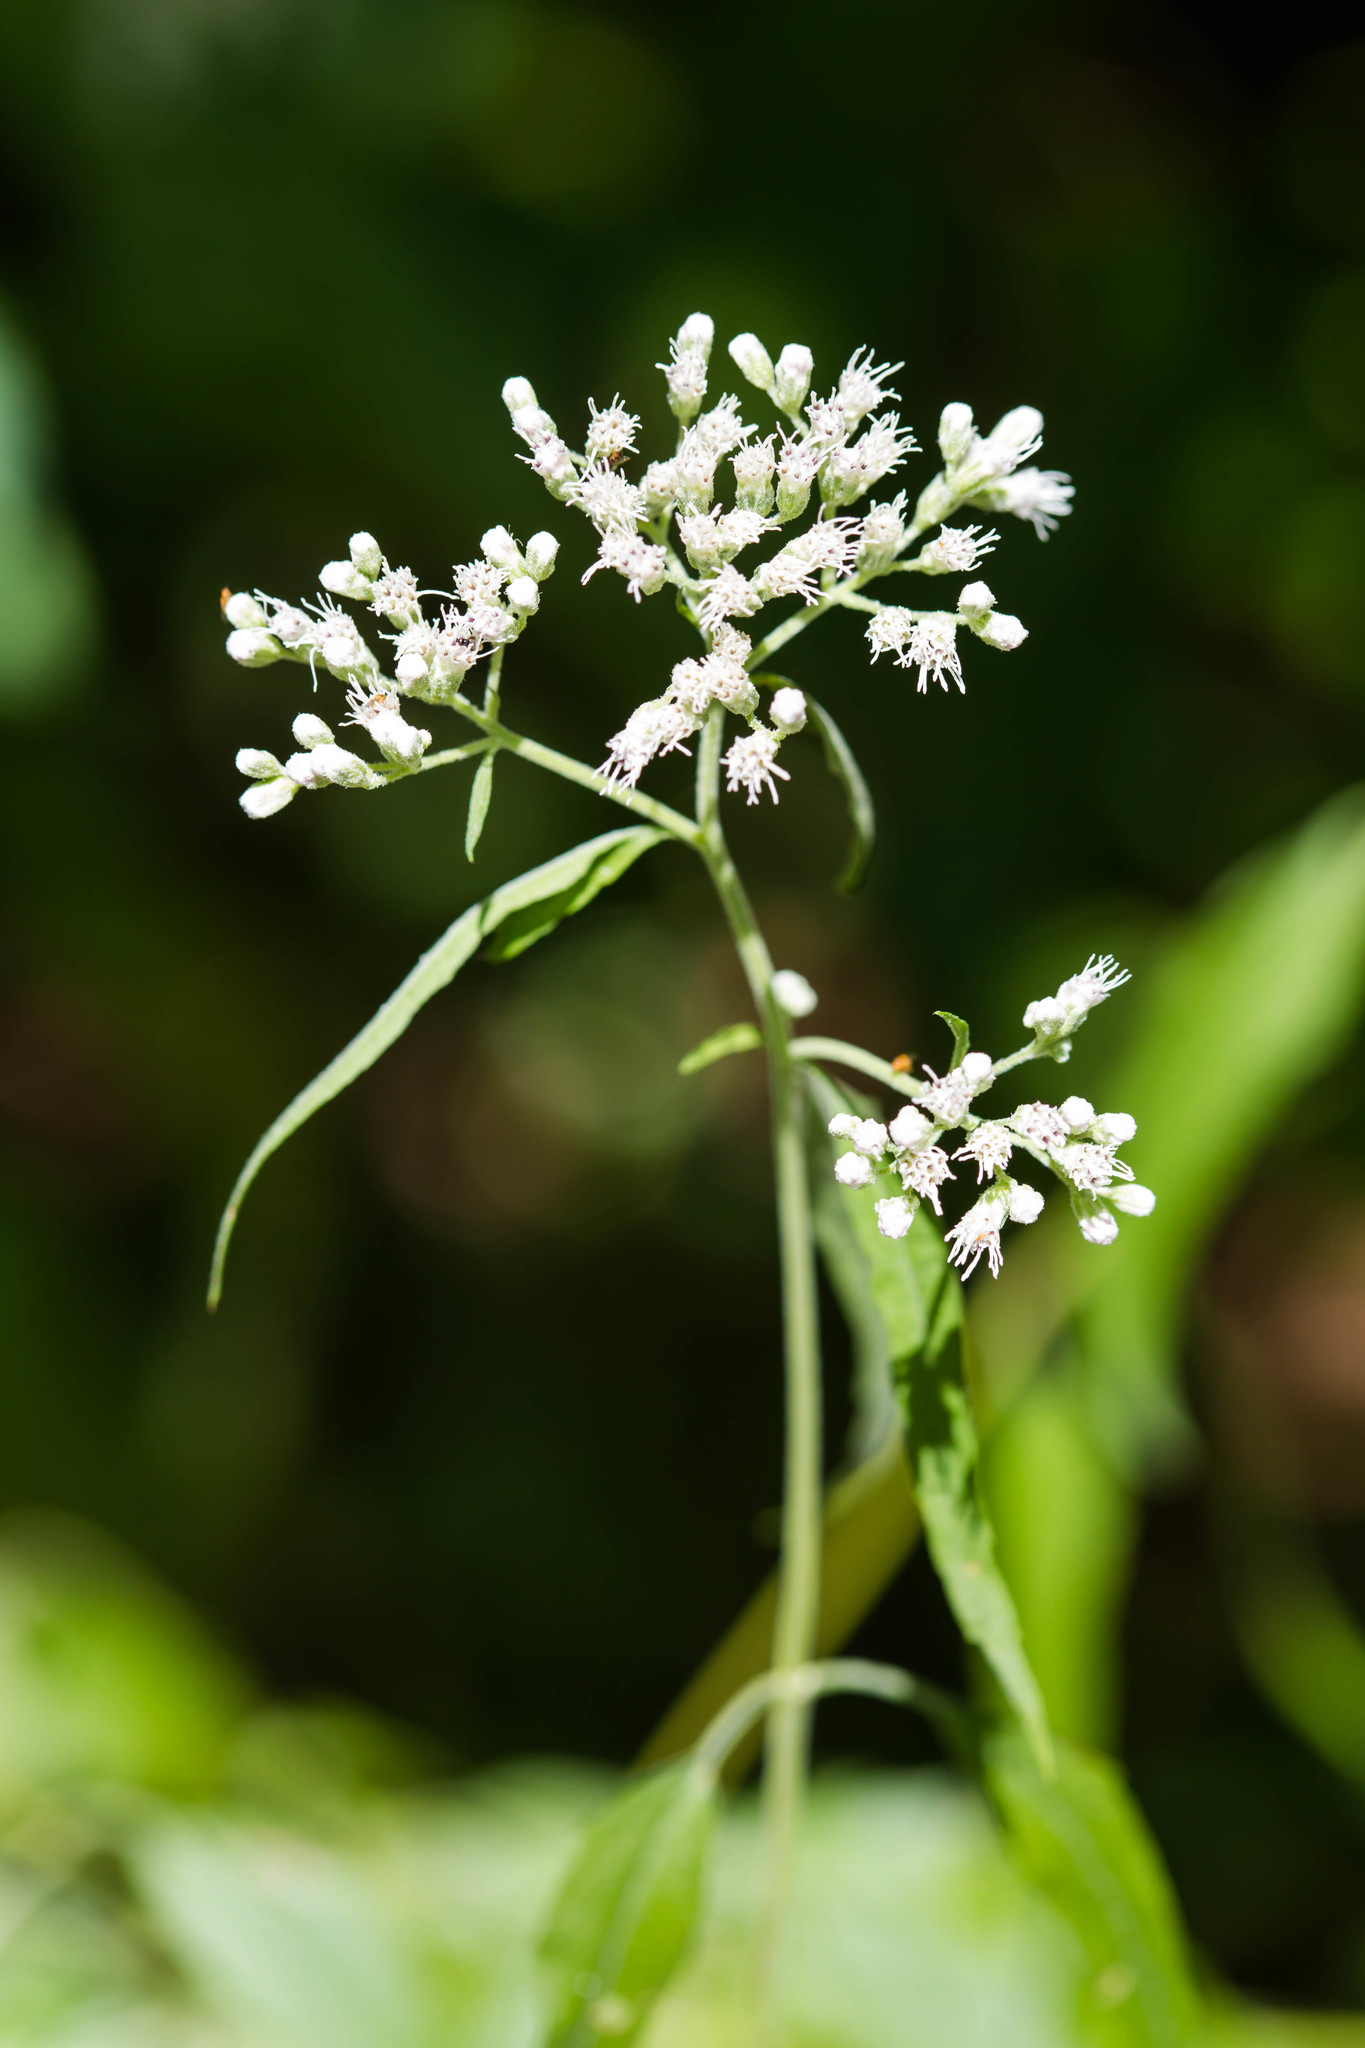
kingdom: Plantae
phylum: Tracheophyta
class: Magnoliopsida
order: Asterales
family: Asteraceae
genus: Eupatorium
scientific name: Eupatorium serotinum
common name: Late boneset
